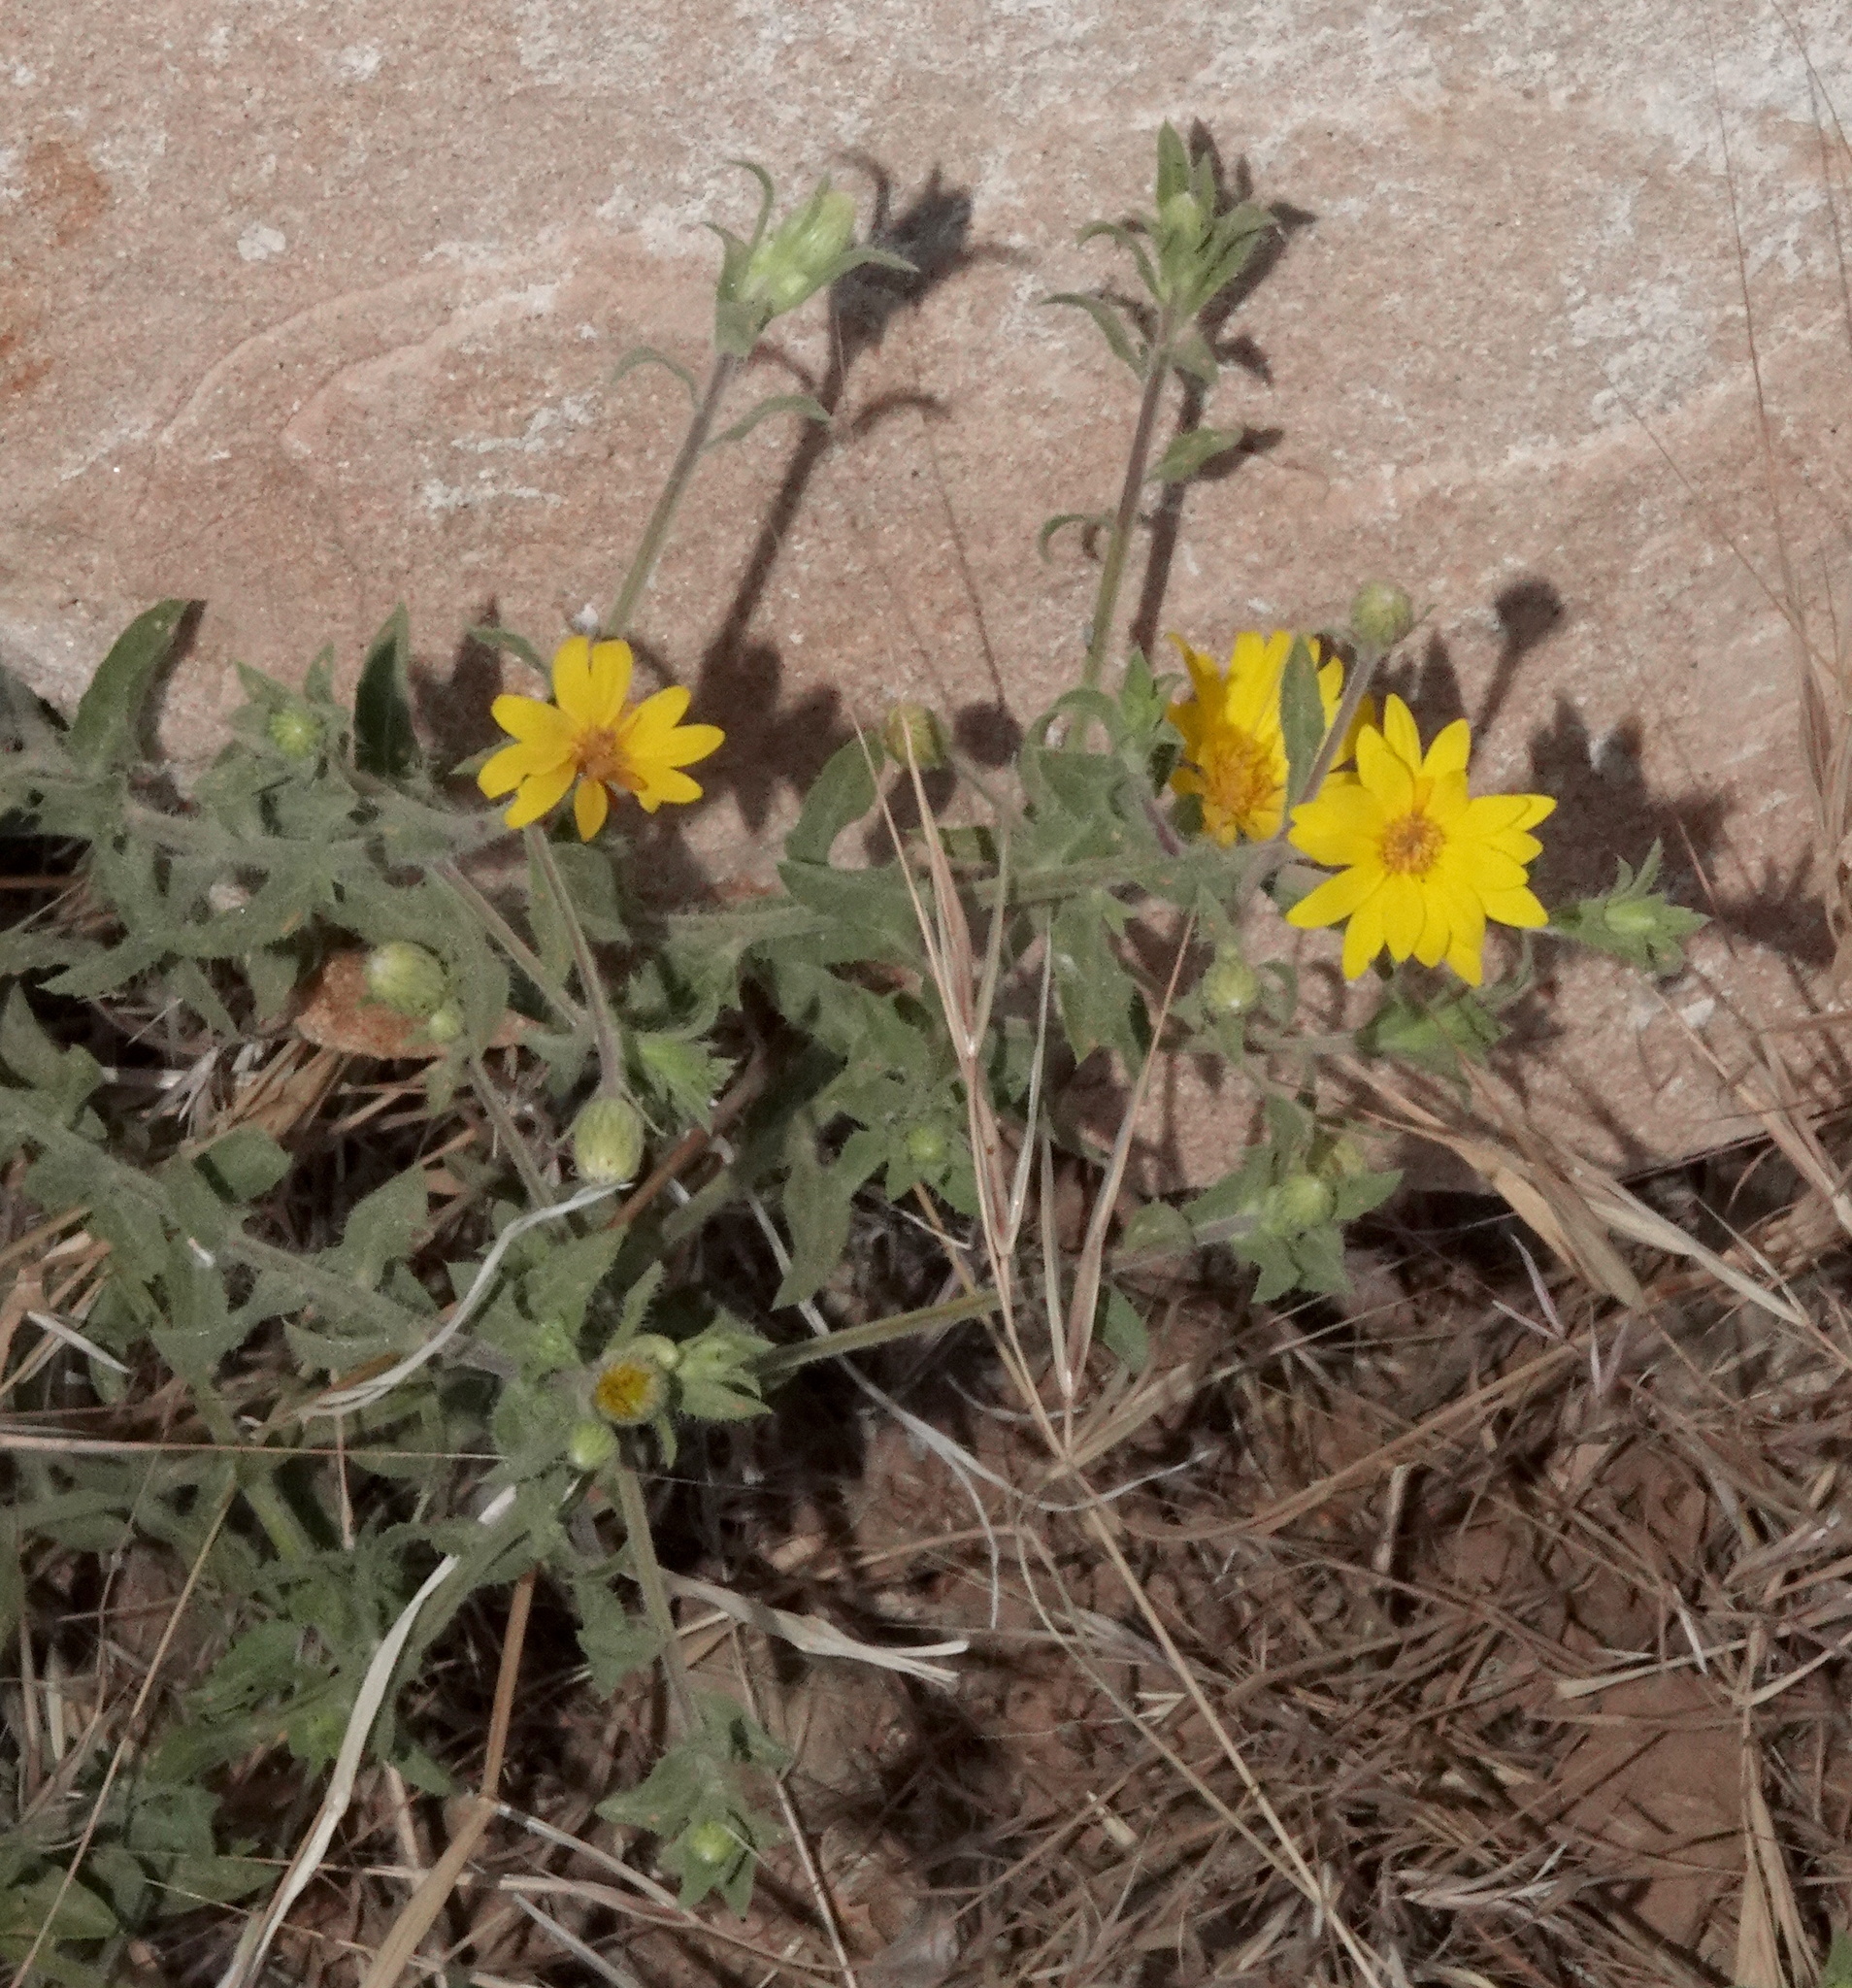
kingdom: Plantae
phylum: Tracheophyta
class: Magnoliopsida
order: Asterales
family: Asteraceae
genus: Heterotheca
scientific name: Heterotheca fulciens
